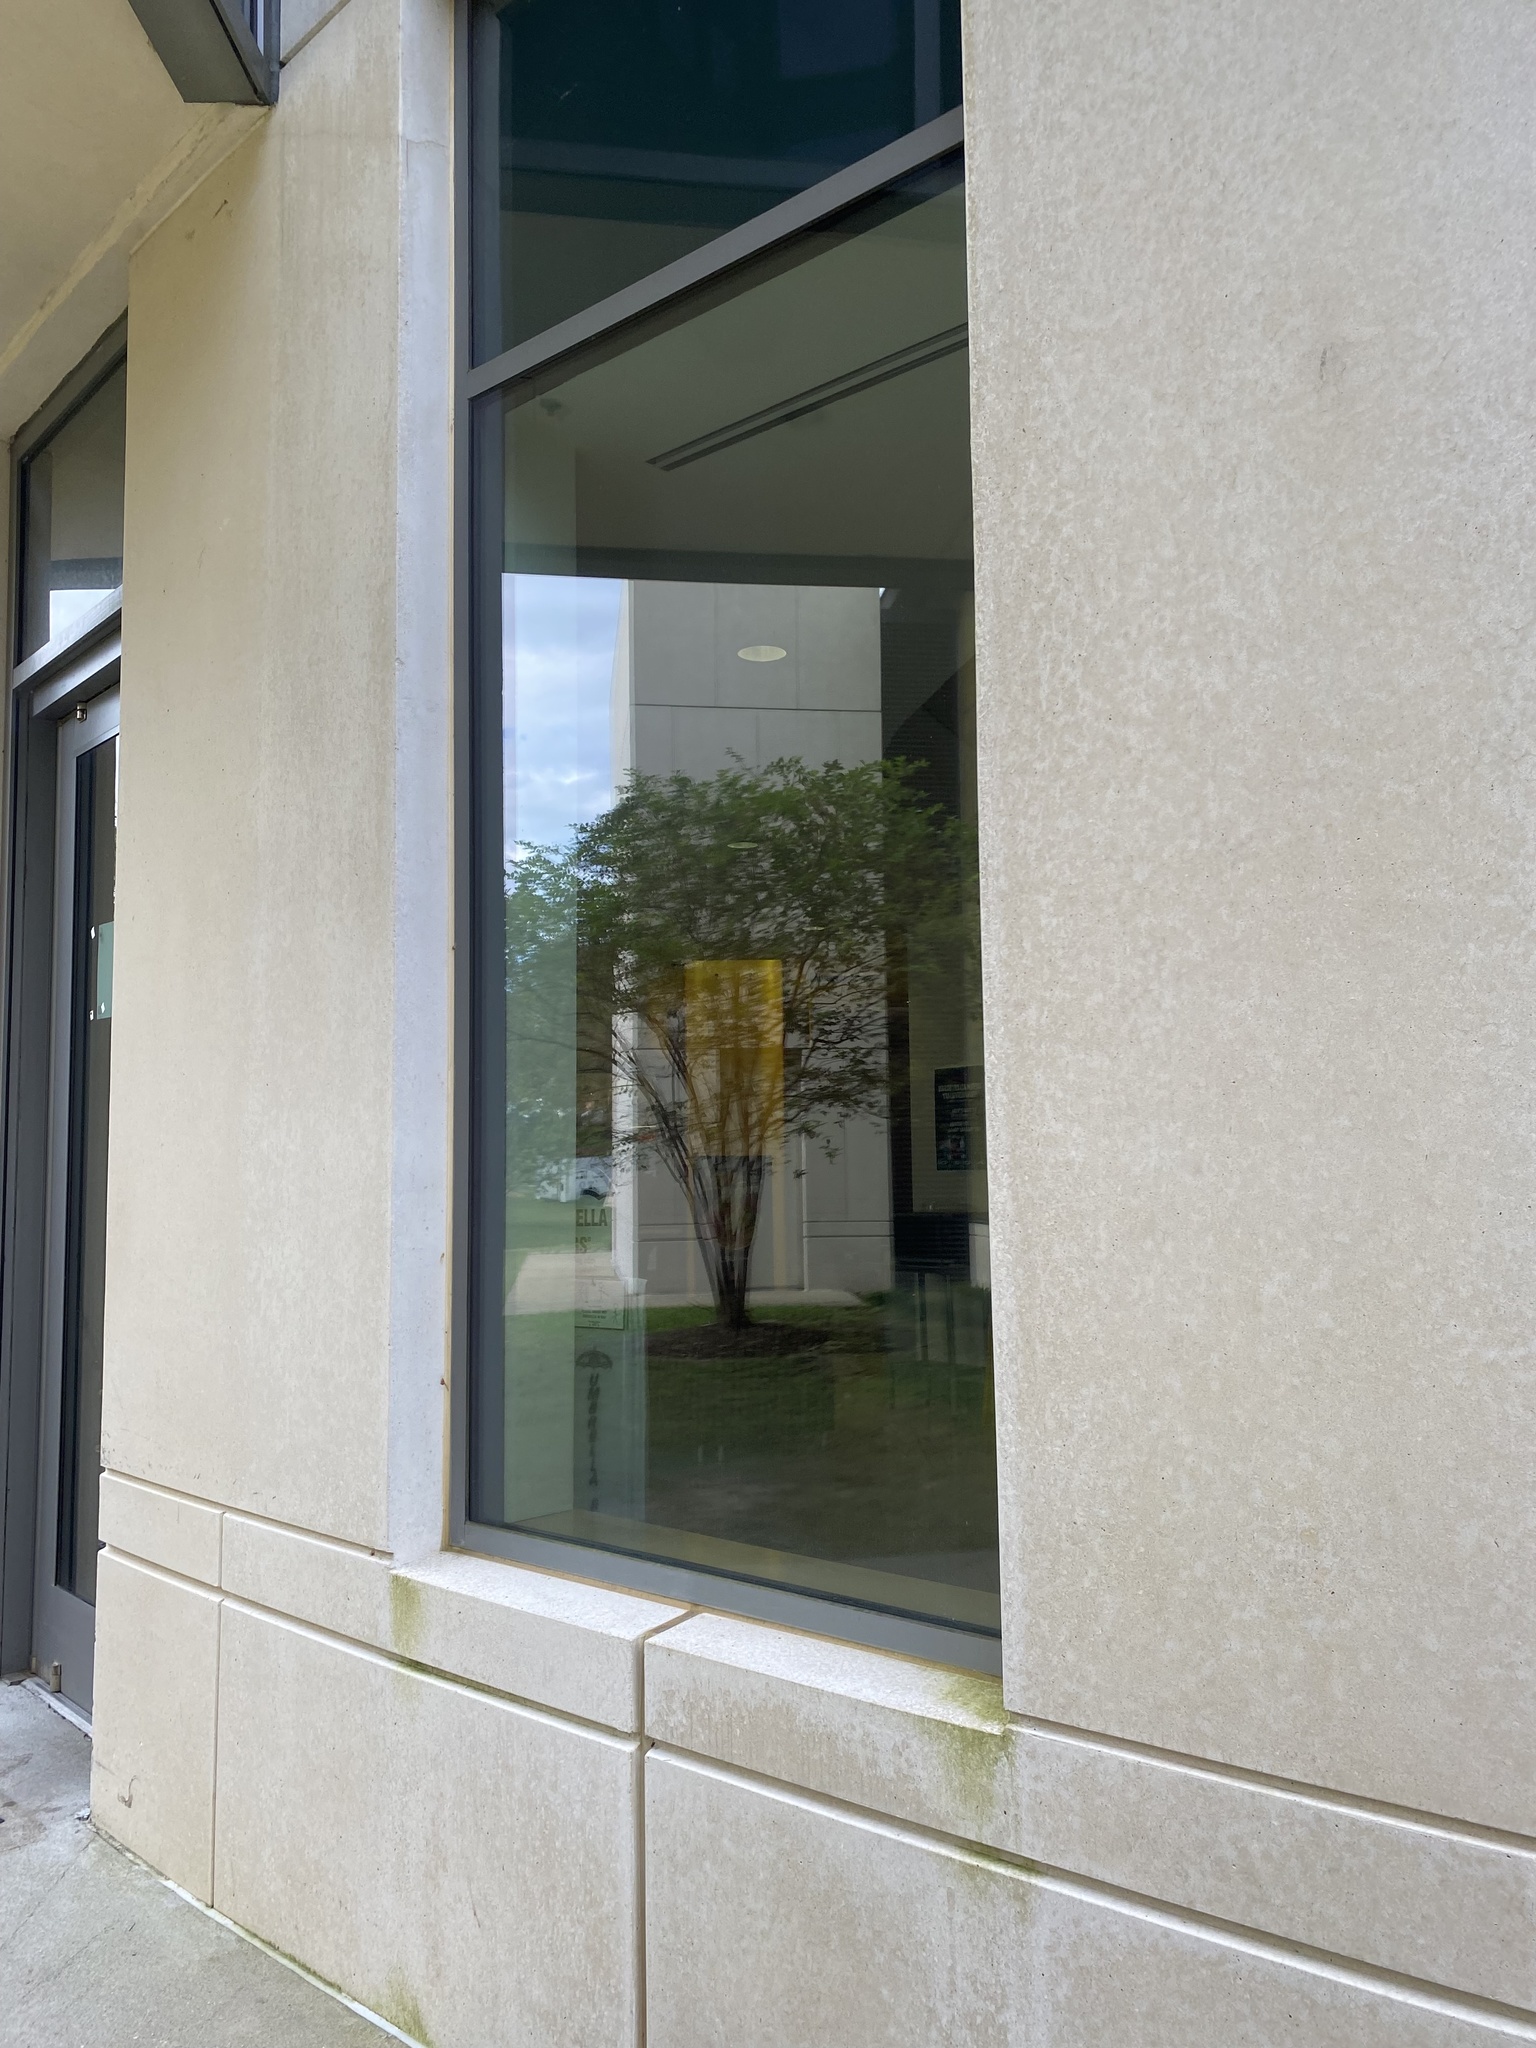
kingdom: Animalia
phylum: Chordata
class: Aves
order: Apodiformes
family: Trochilidae
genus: Archilochus
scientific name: Archilochus colubris
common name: Ruby-throated hummingbird
